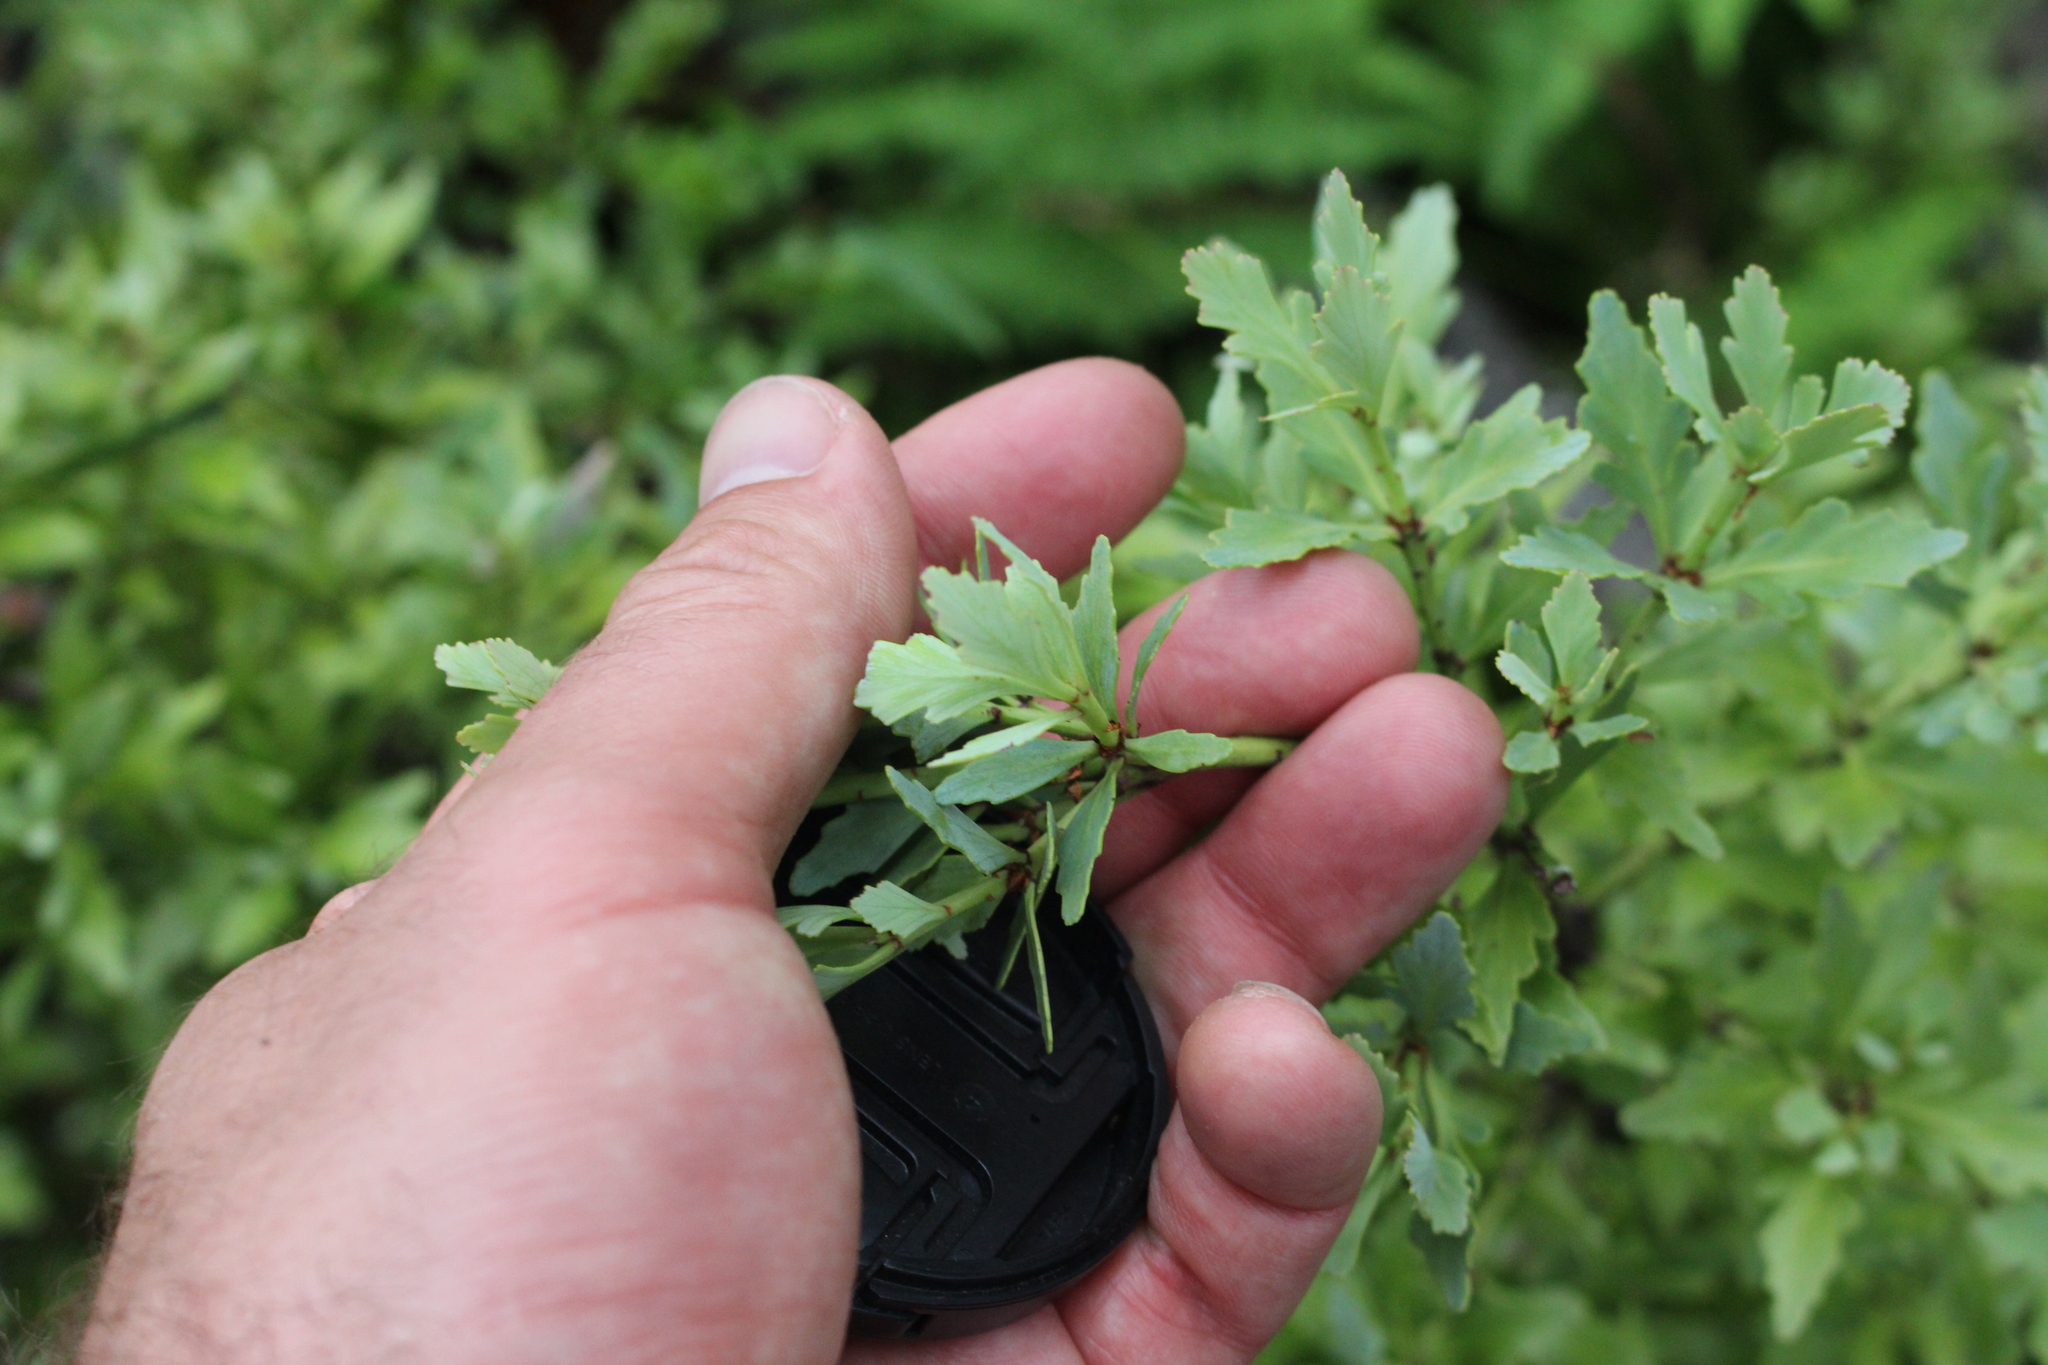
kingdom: Plantae
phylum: Tracheophyta
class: Pinopsida
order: Pinales
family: Phyllocladaceae
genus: Phyllocladus
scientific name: Phyllocladus trichomanoides
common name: Celery pine
